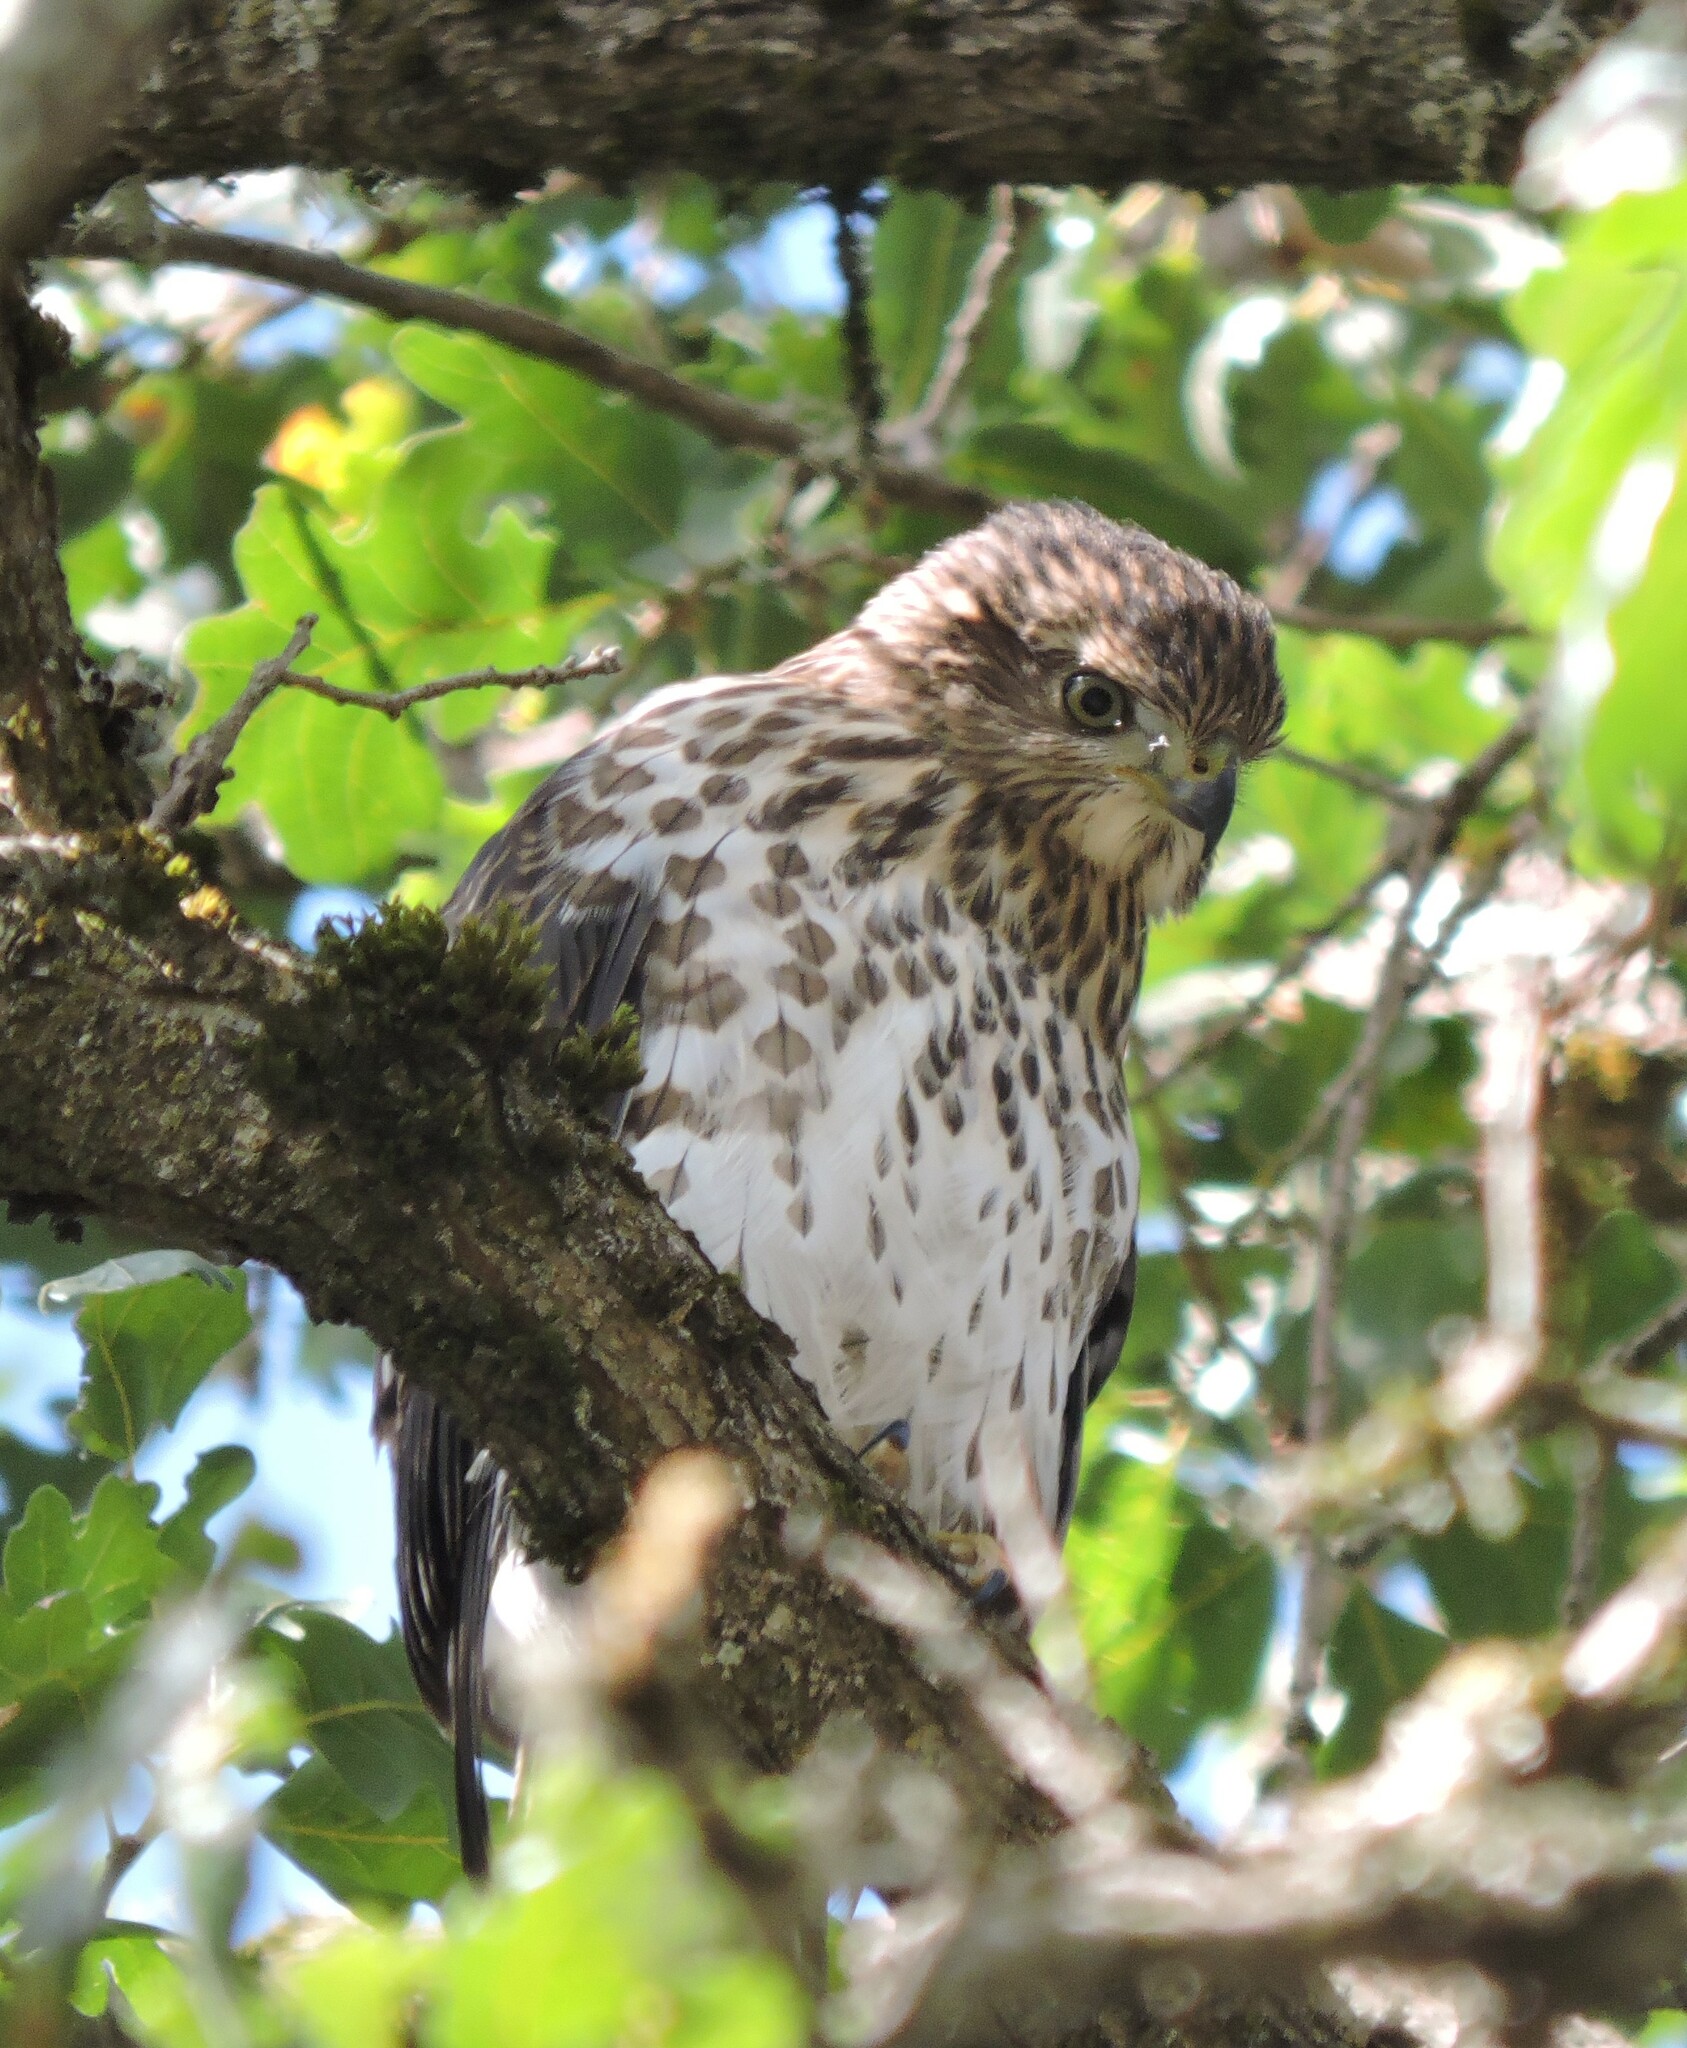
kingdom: Animalia
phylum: Chordata
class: Aves
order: Accipitriformes
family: Accipitridae
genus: Accipiter
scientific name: Accipiter cooperii
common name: Cooper's hawk
